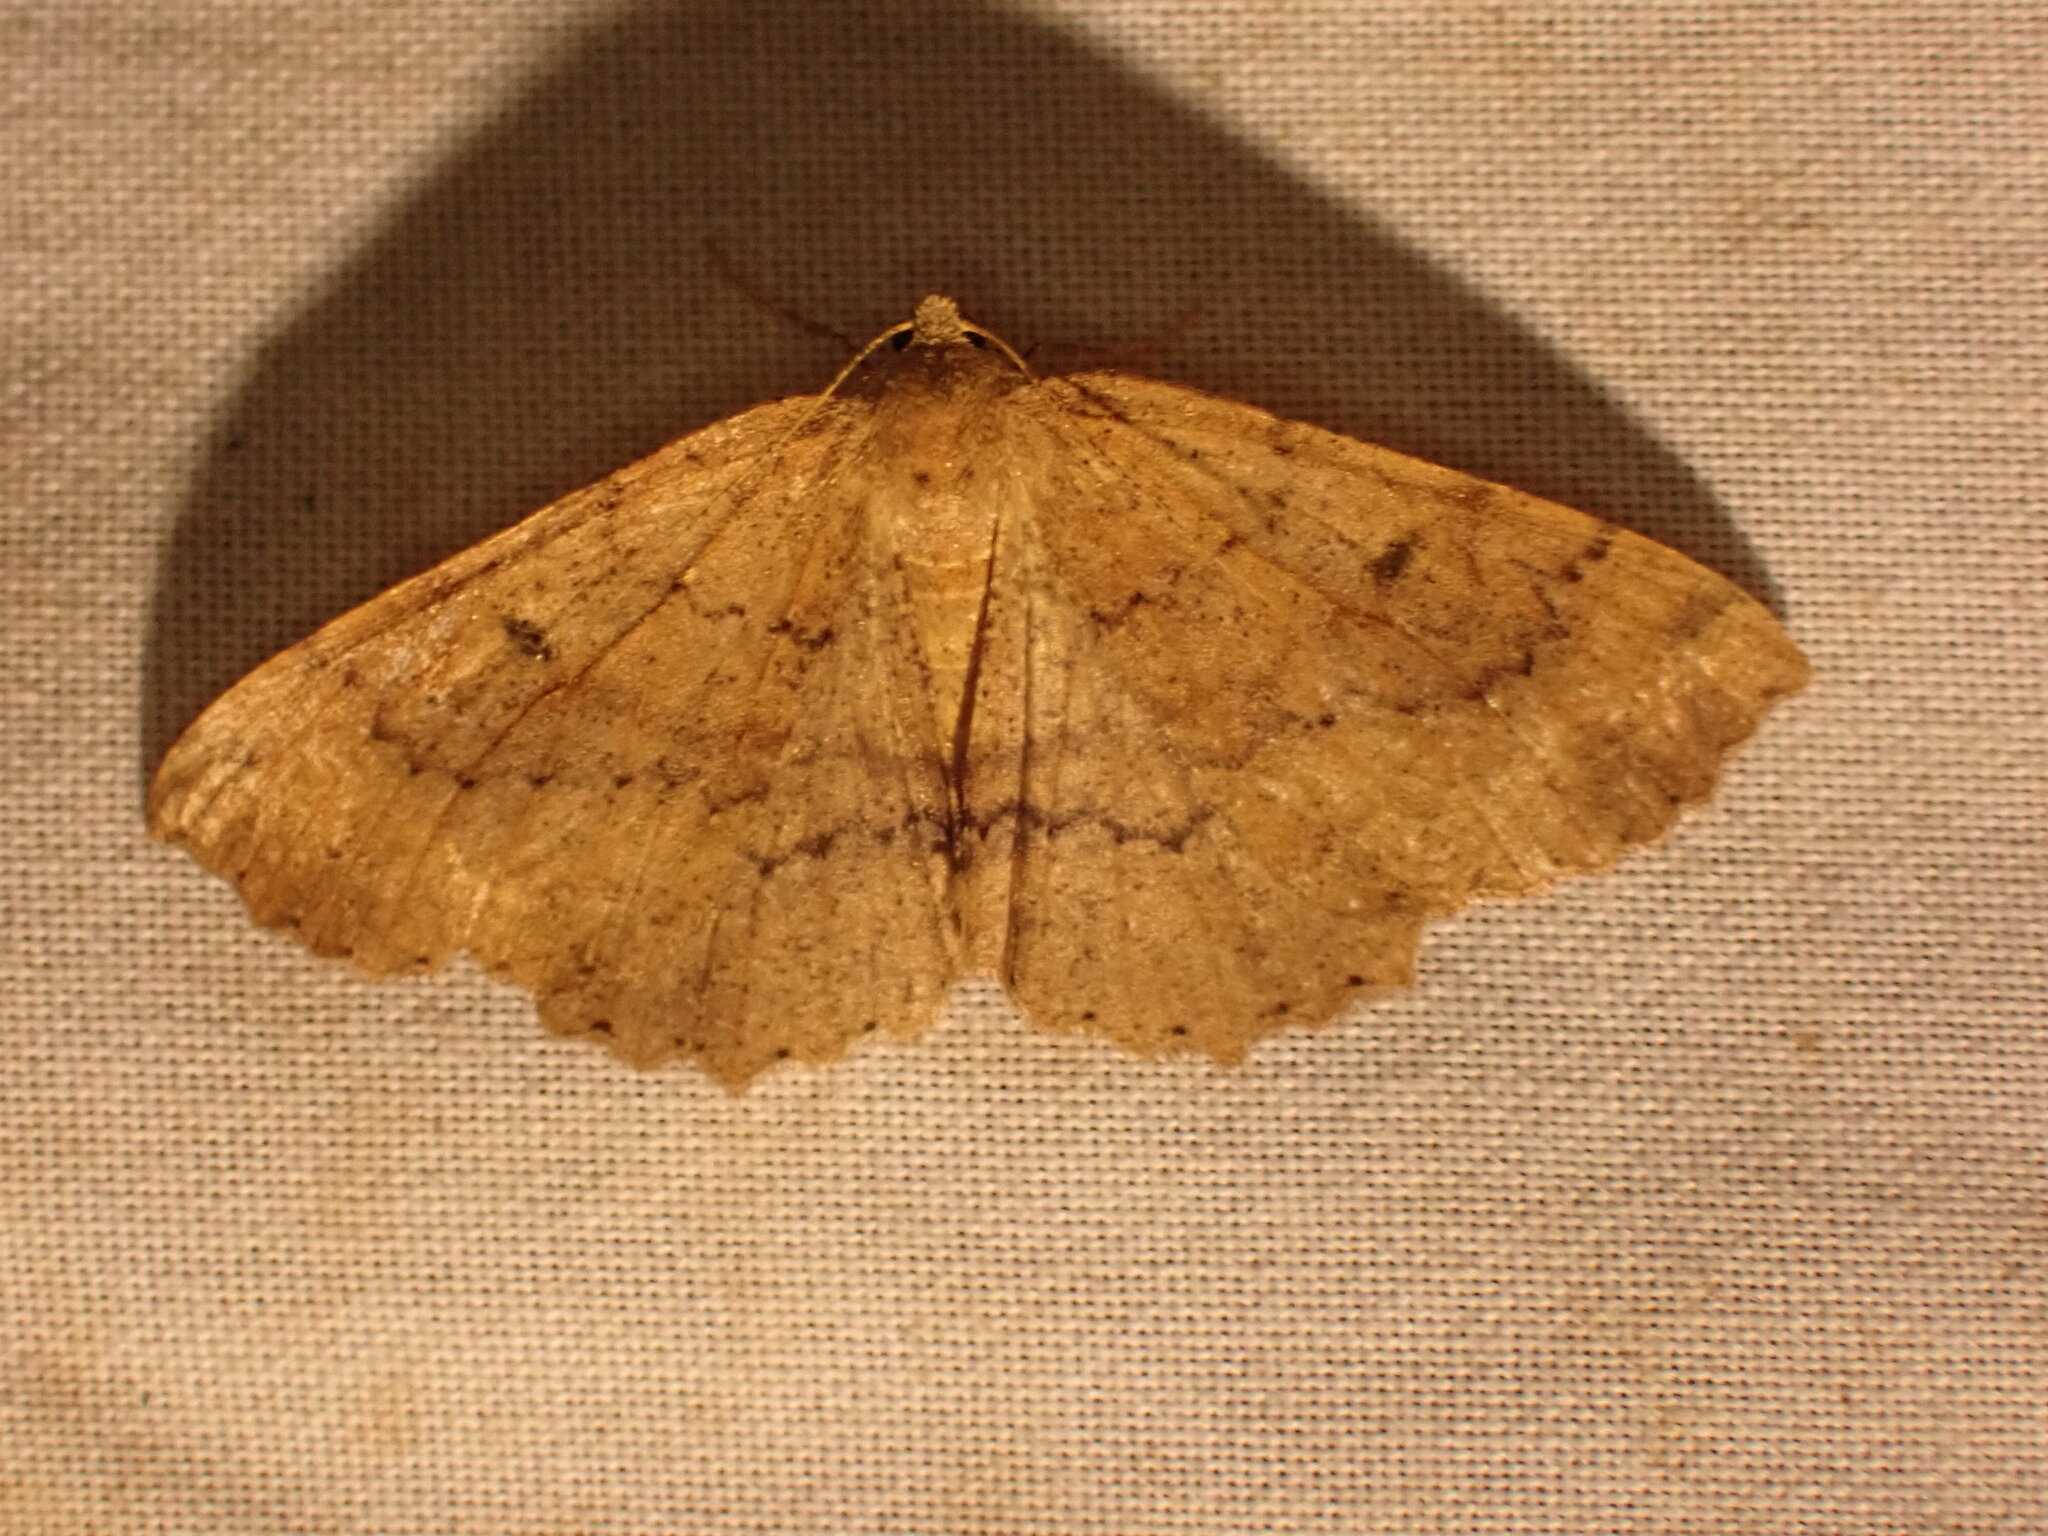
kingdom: Animalia
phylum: Arthropoda
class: Insecta
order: Lepidoptera
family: Geometridae
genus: Cleora
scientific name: Cleora scriptaria
